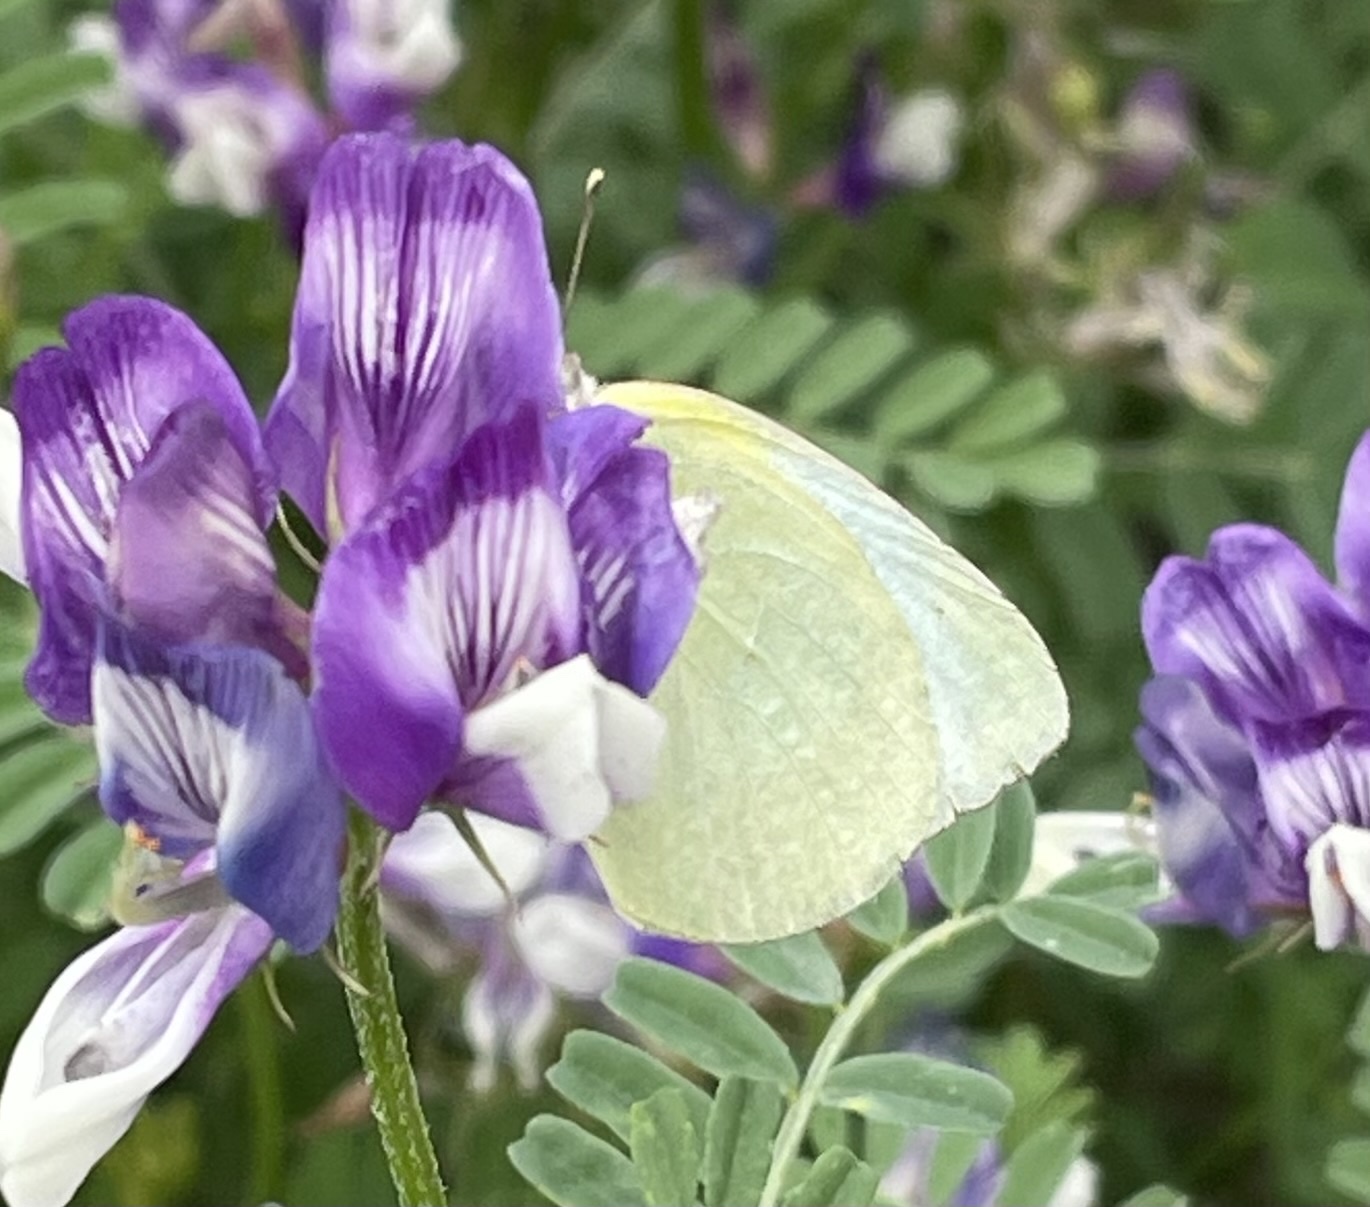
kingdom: Animalia
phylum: Arthropoda
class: Insecta
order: Lepidoptera
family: Pieridae
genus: Kricogonia
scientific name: Kricogonia lyside
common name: Guayacan sulphur,
